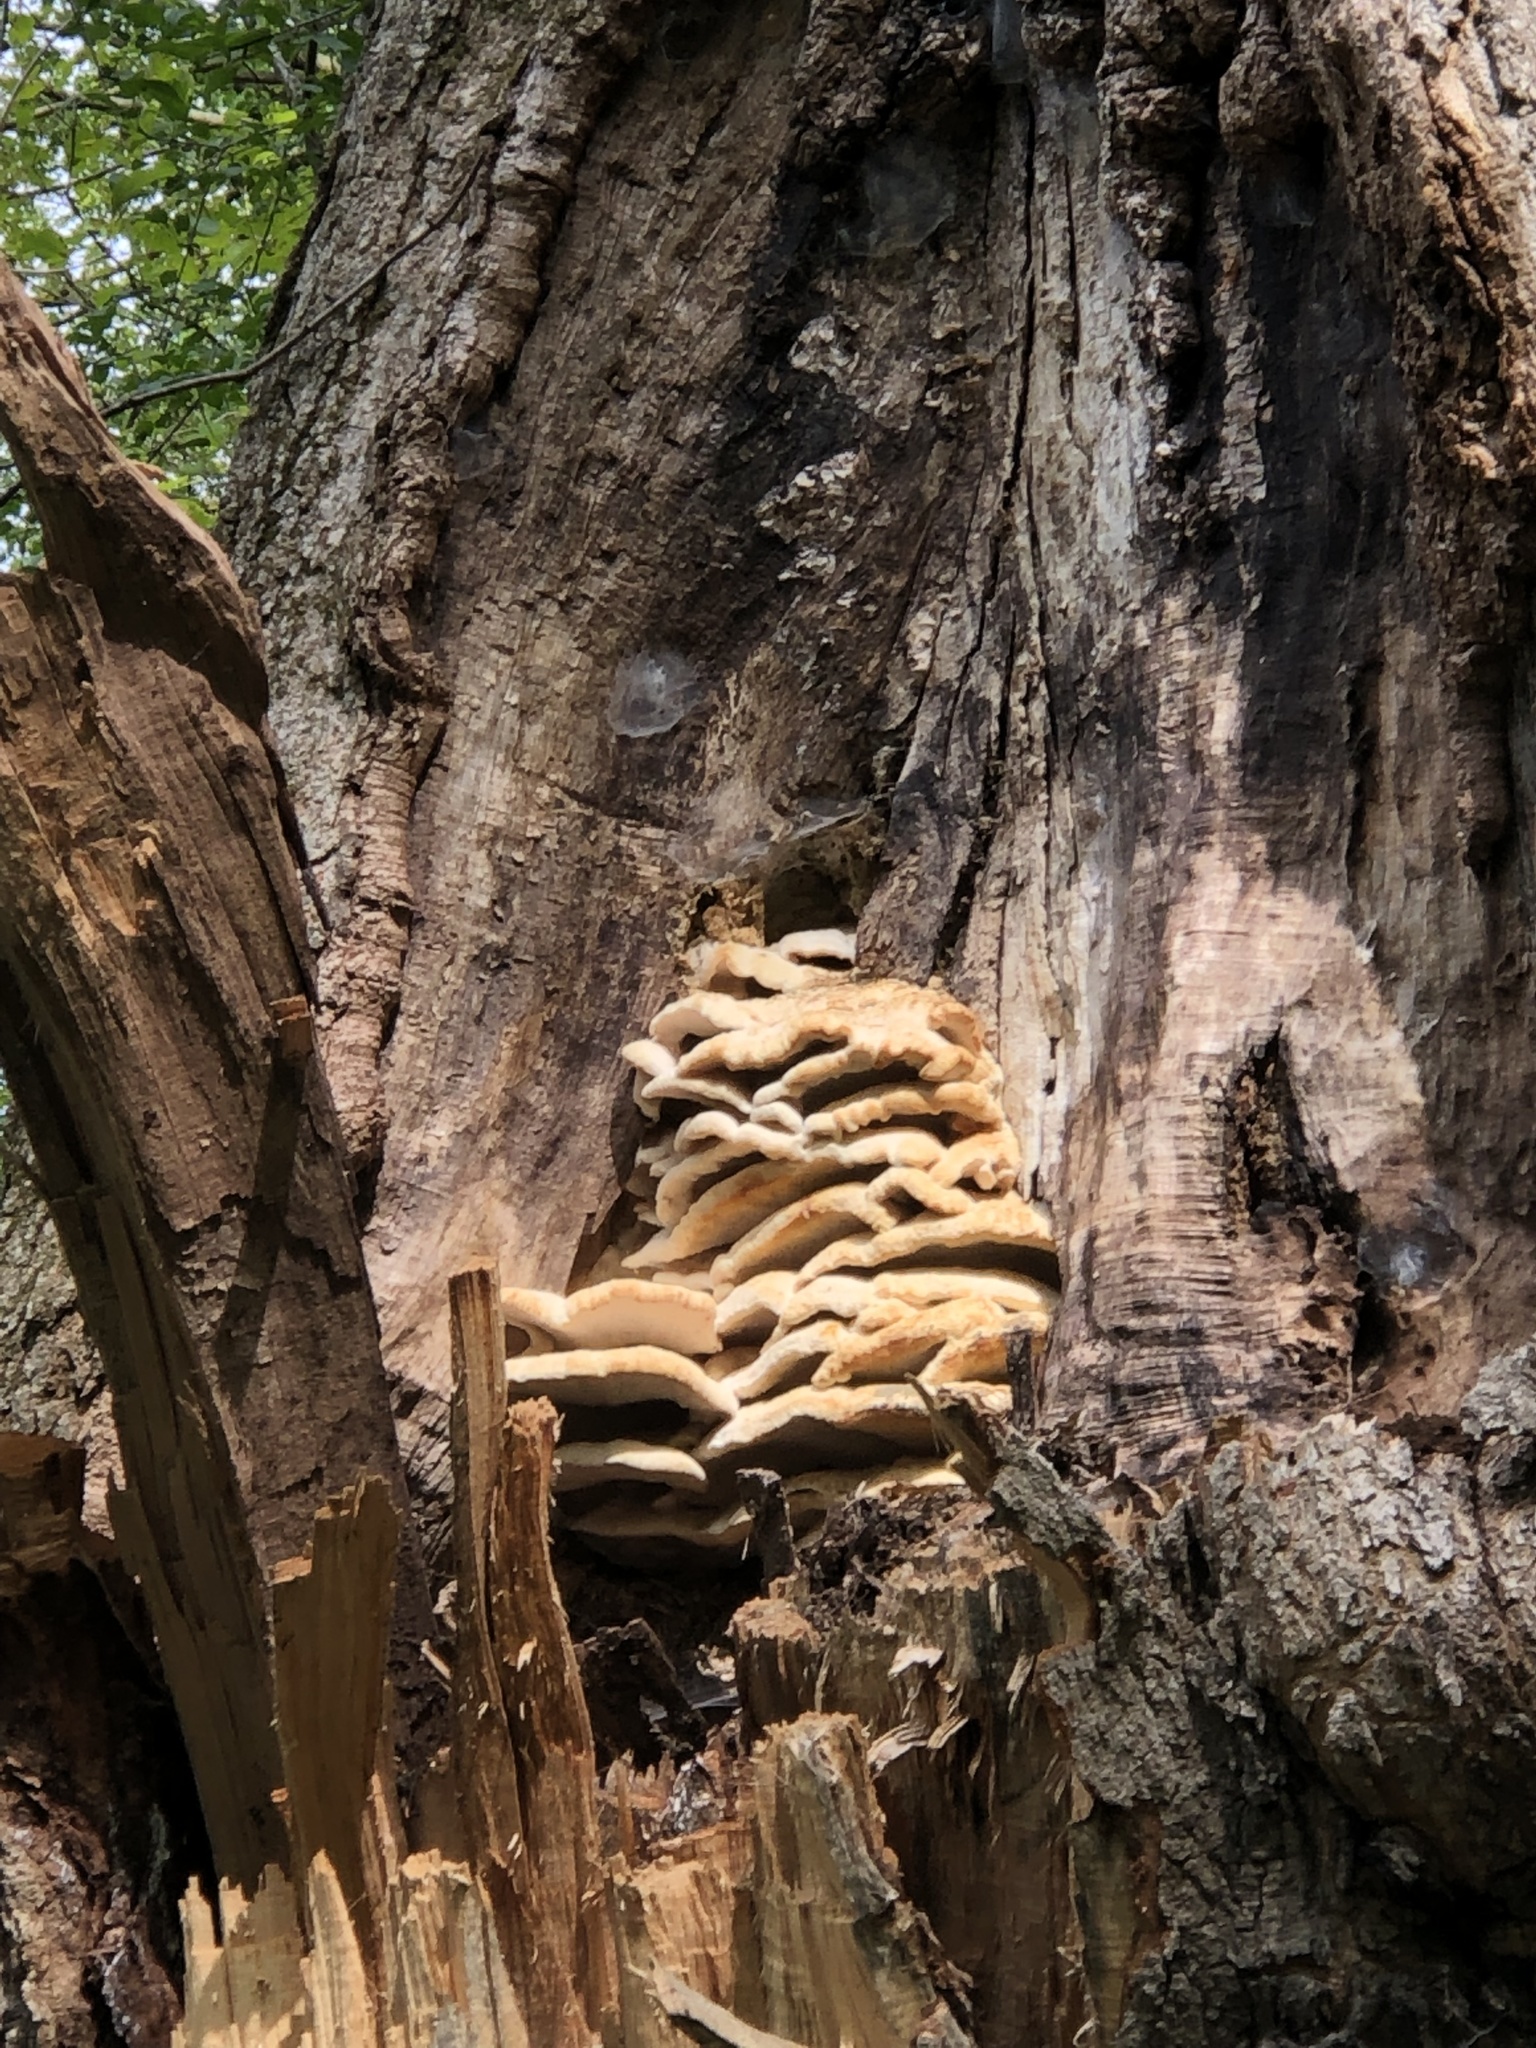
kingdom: Fungi
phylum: Basidiomycota
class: Agaricomycetes
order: Polyporales
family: Meruliaceae
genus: Climacodon
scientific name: Climacodon septentrionalis
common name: Northern tooth
